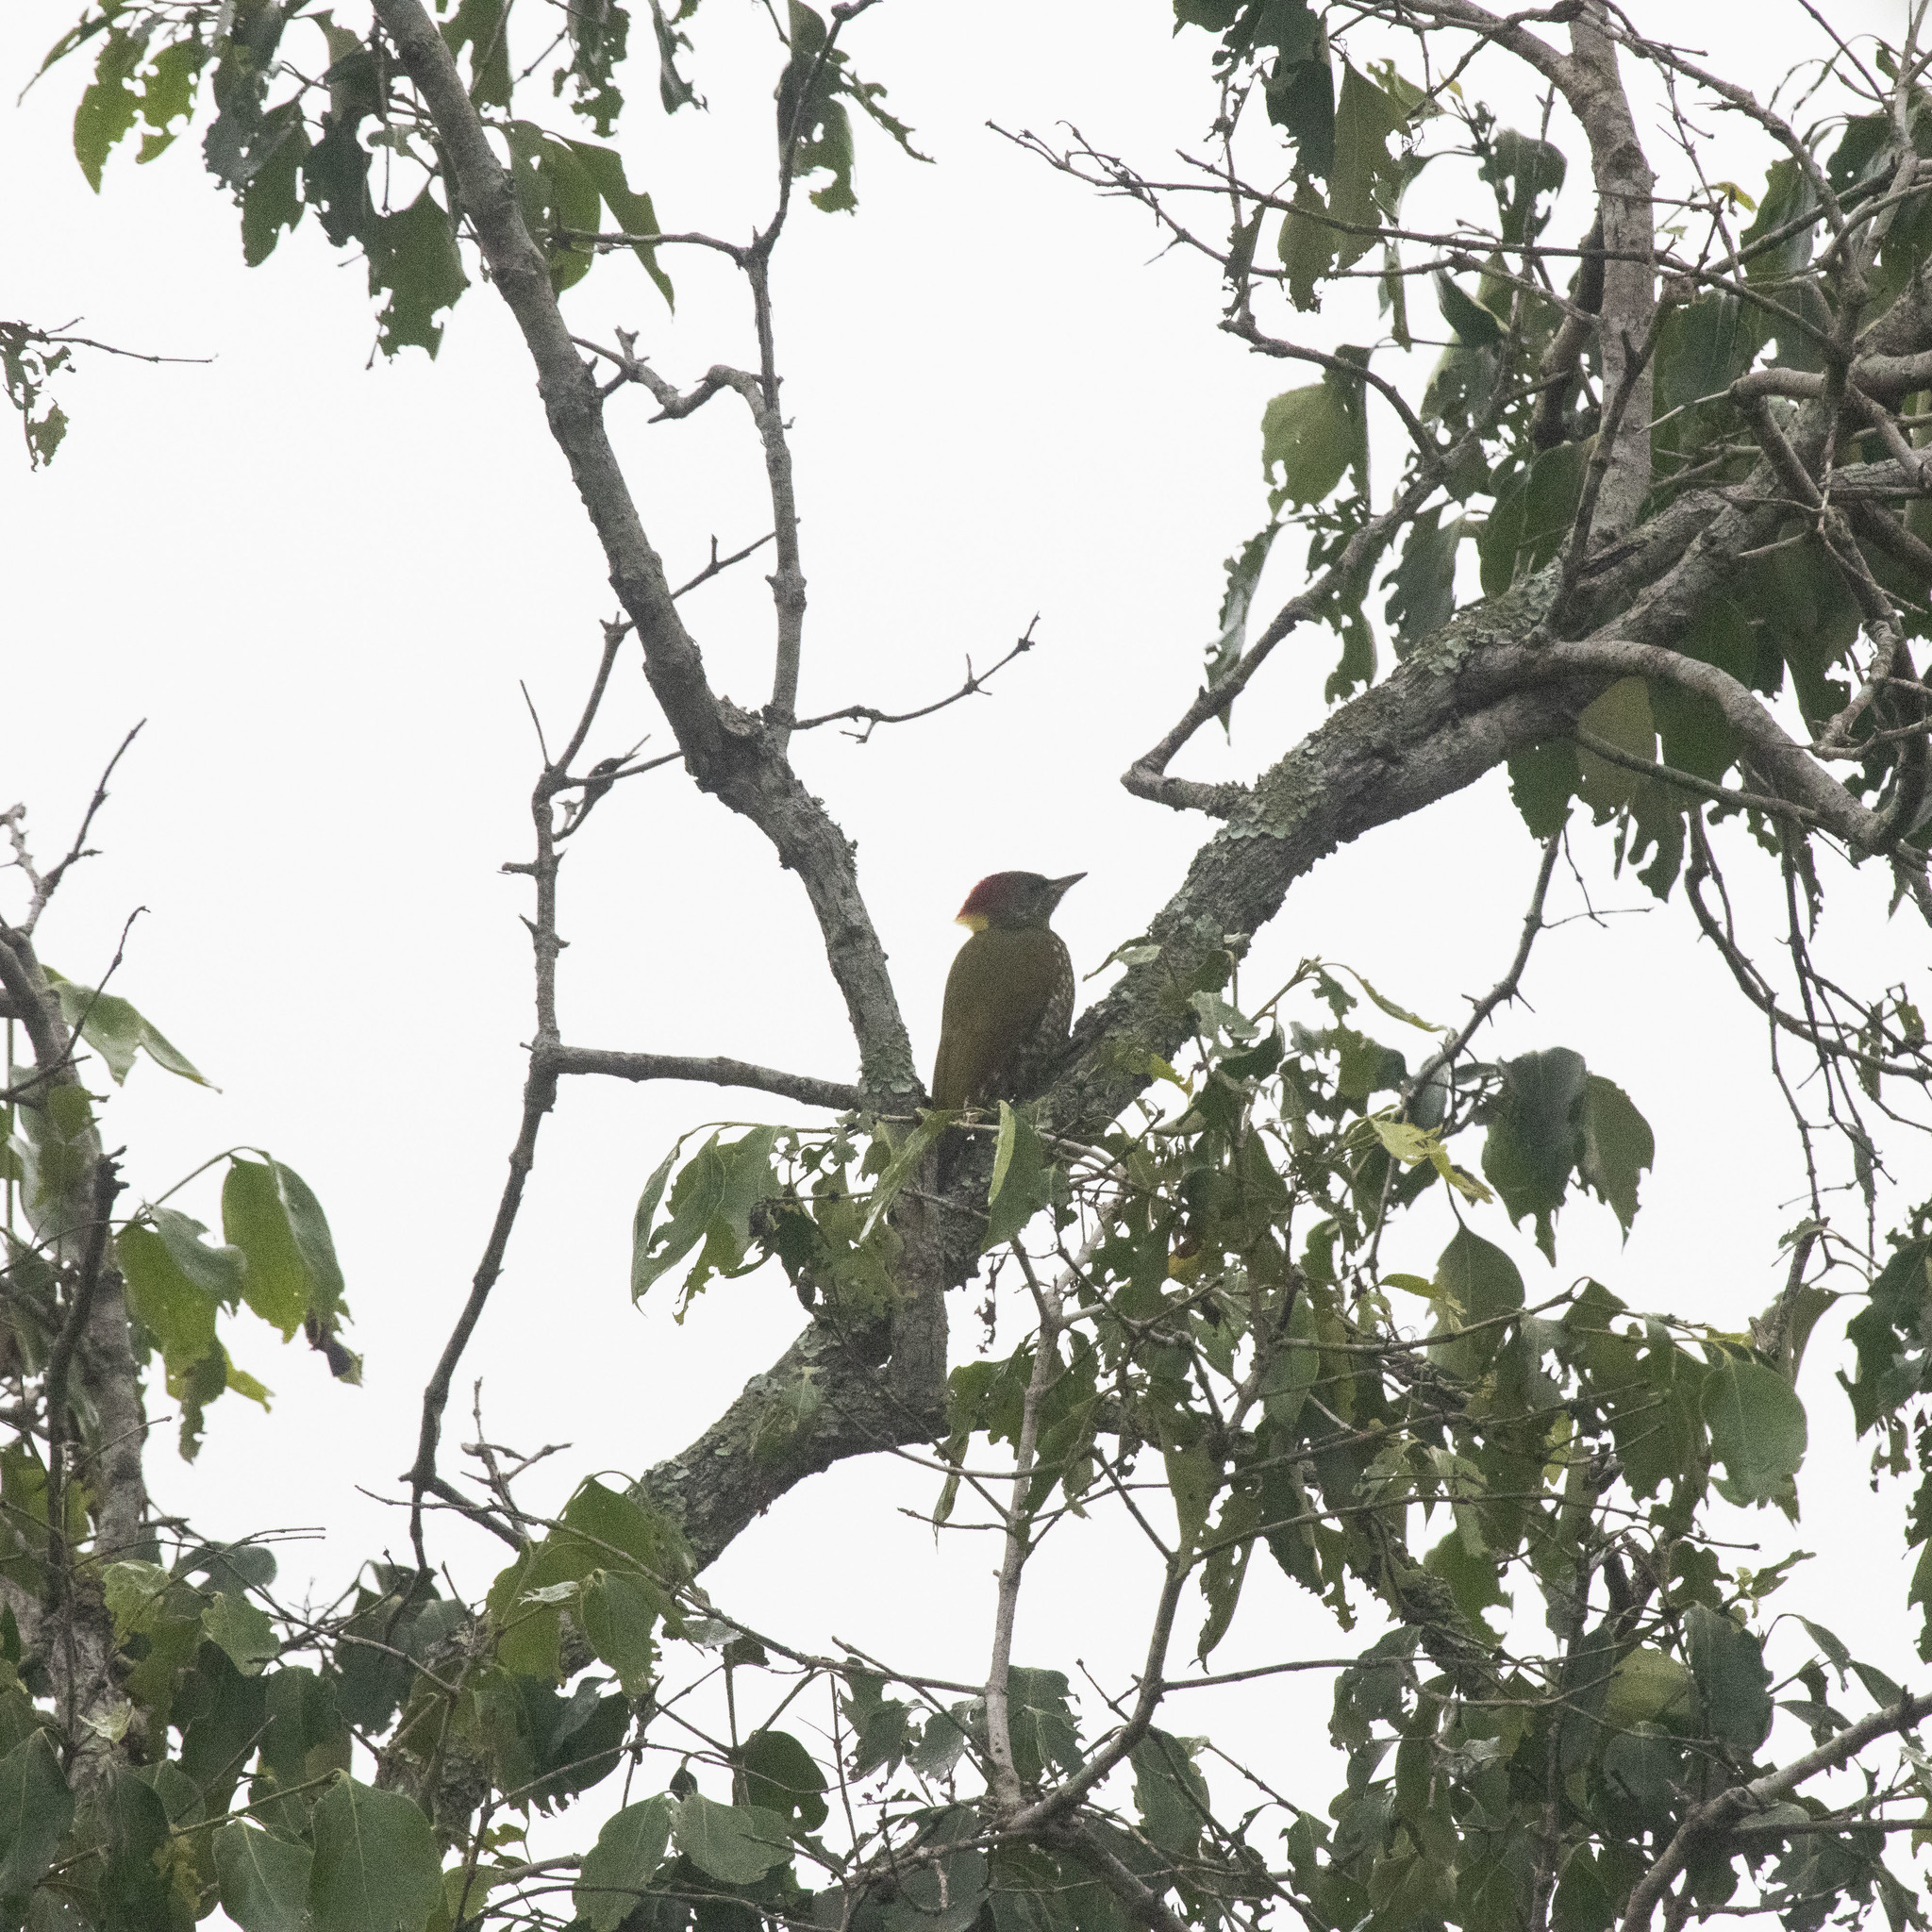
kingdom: Animalia
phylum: Chordata
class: Aves
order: Piciformes
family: Picidae
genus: Picus
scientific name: Picus chlorolophus
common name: Lesser yellownape
